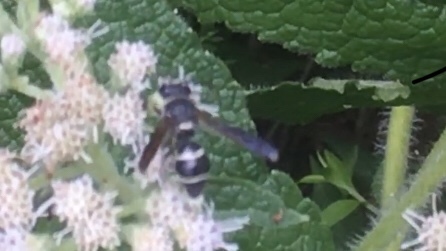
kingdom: Animalia
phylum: Arthropoda
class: Insecta
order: Hymenoptera
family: Eumenidae
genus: Euodynerus
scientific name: Euodynerus
